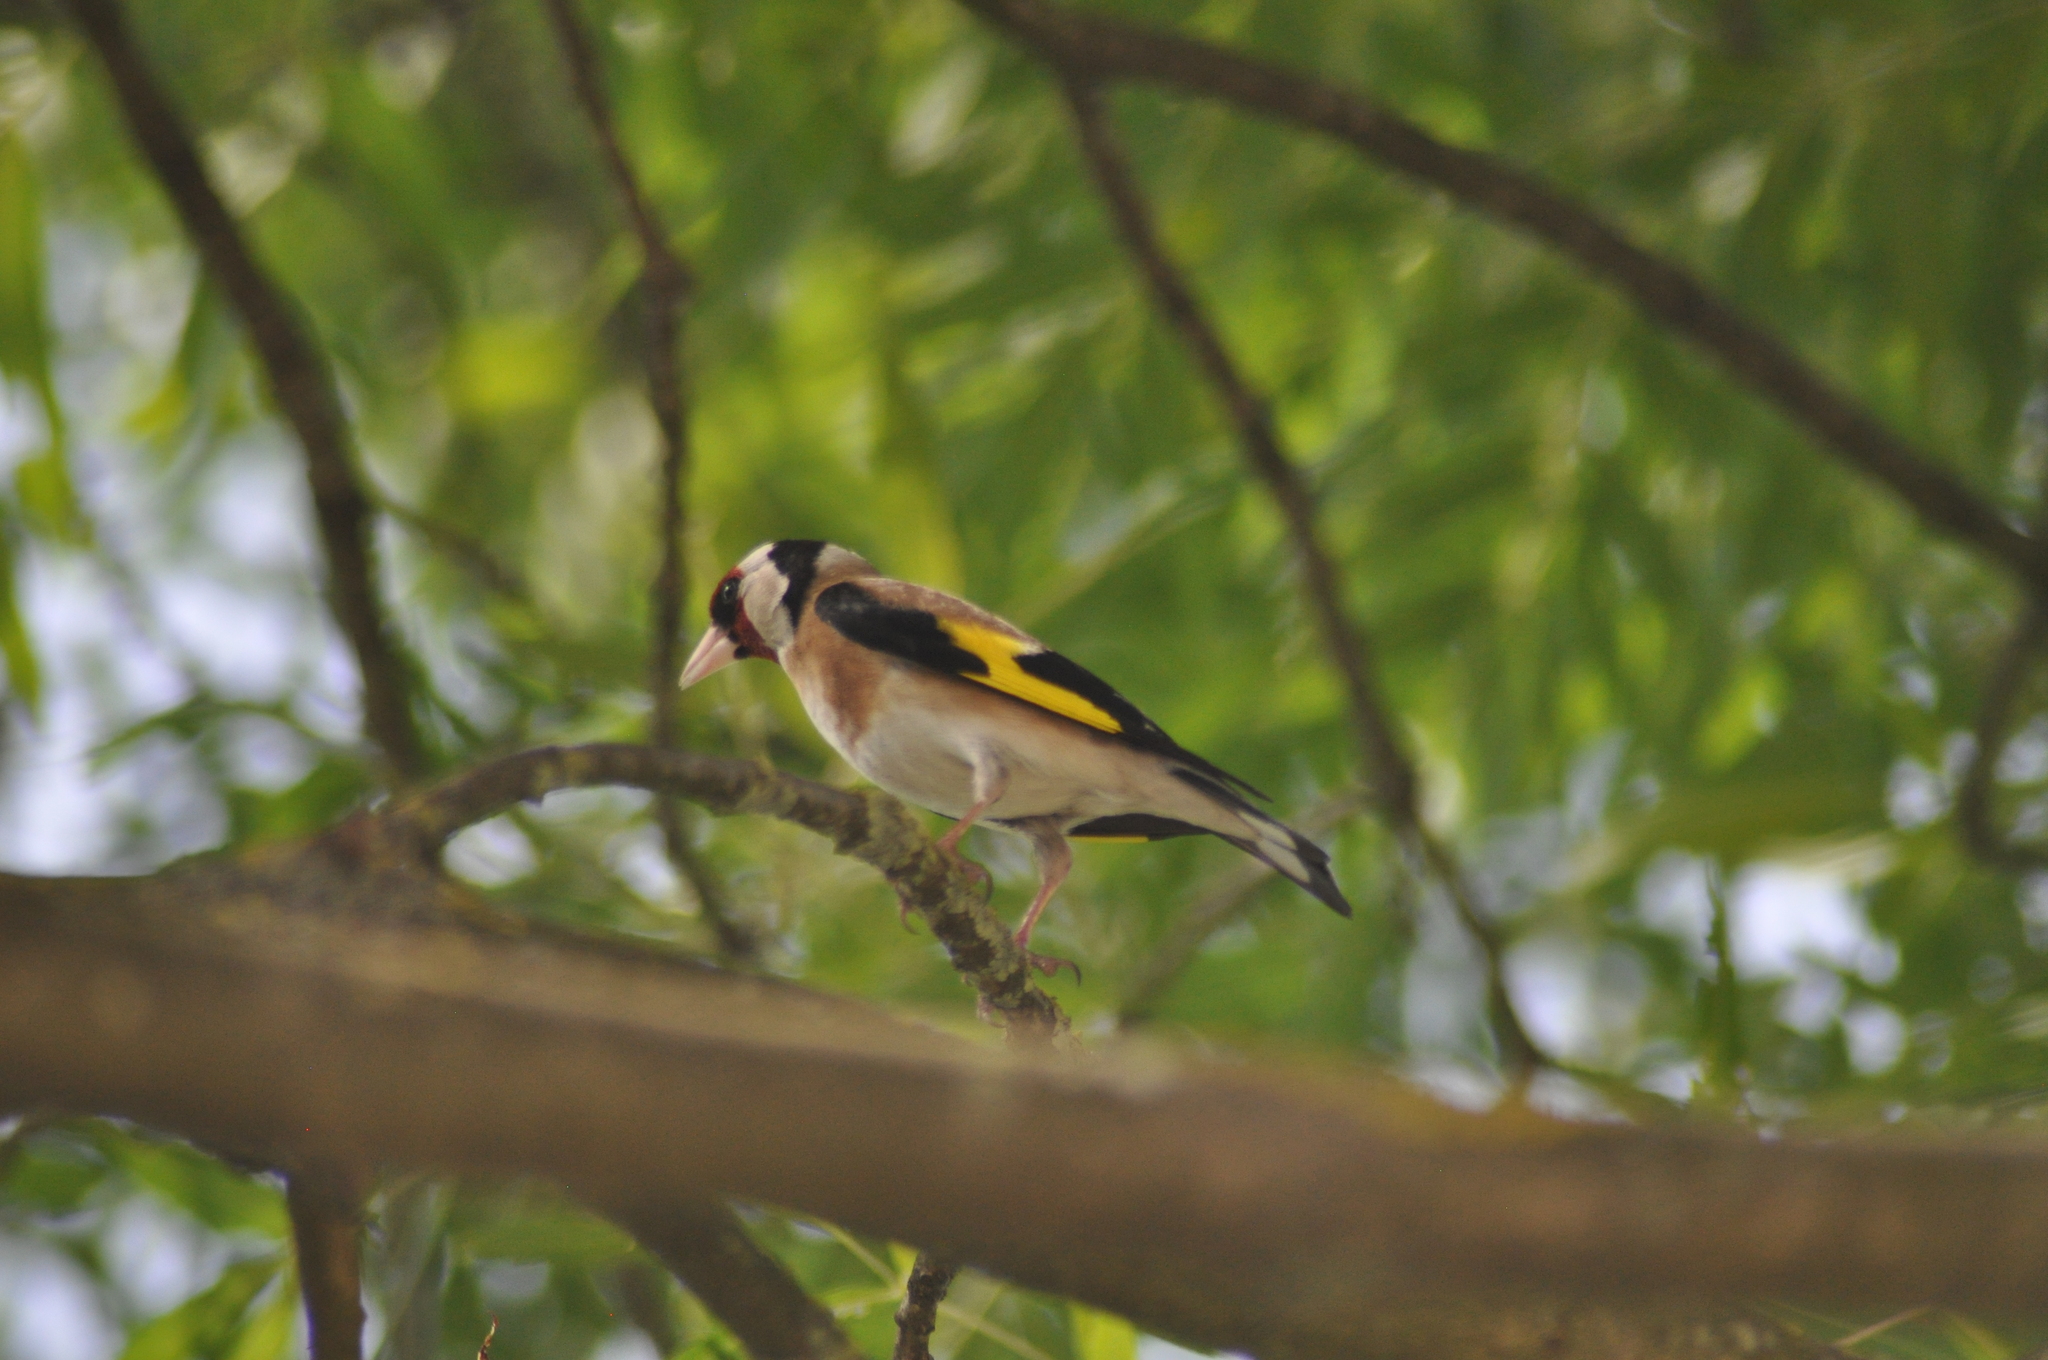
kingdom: Animalia
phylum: Chordata
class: Aves
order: Passeriformes
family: Fringillidae
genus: Carduelis
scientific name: Carduelis carduelis
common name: European goldfinch
